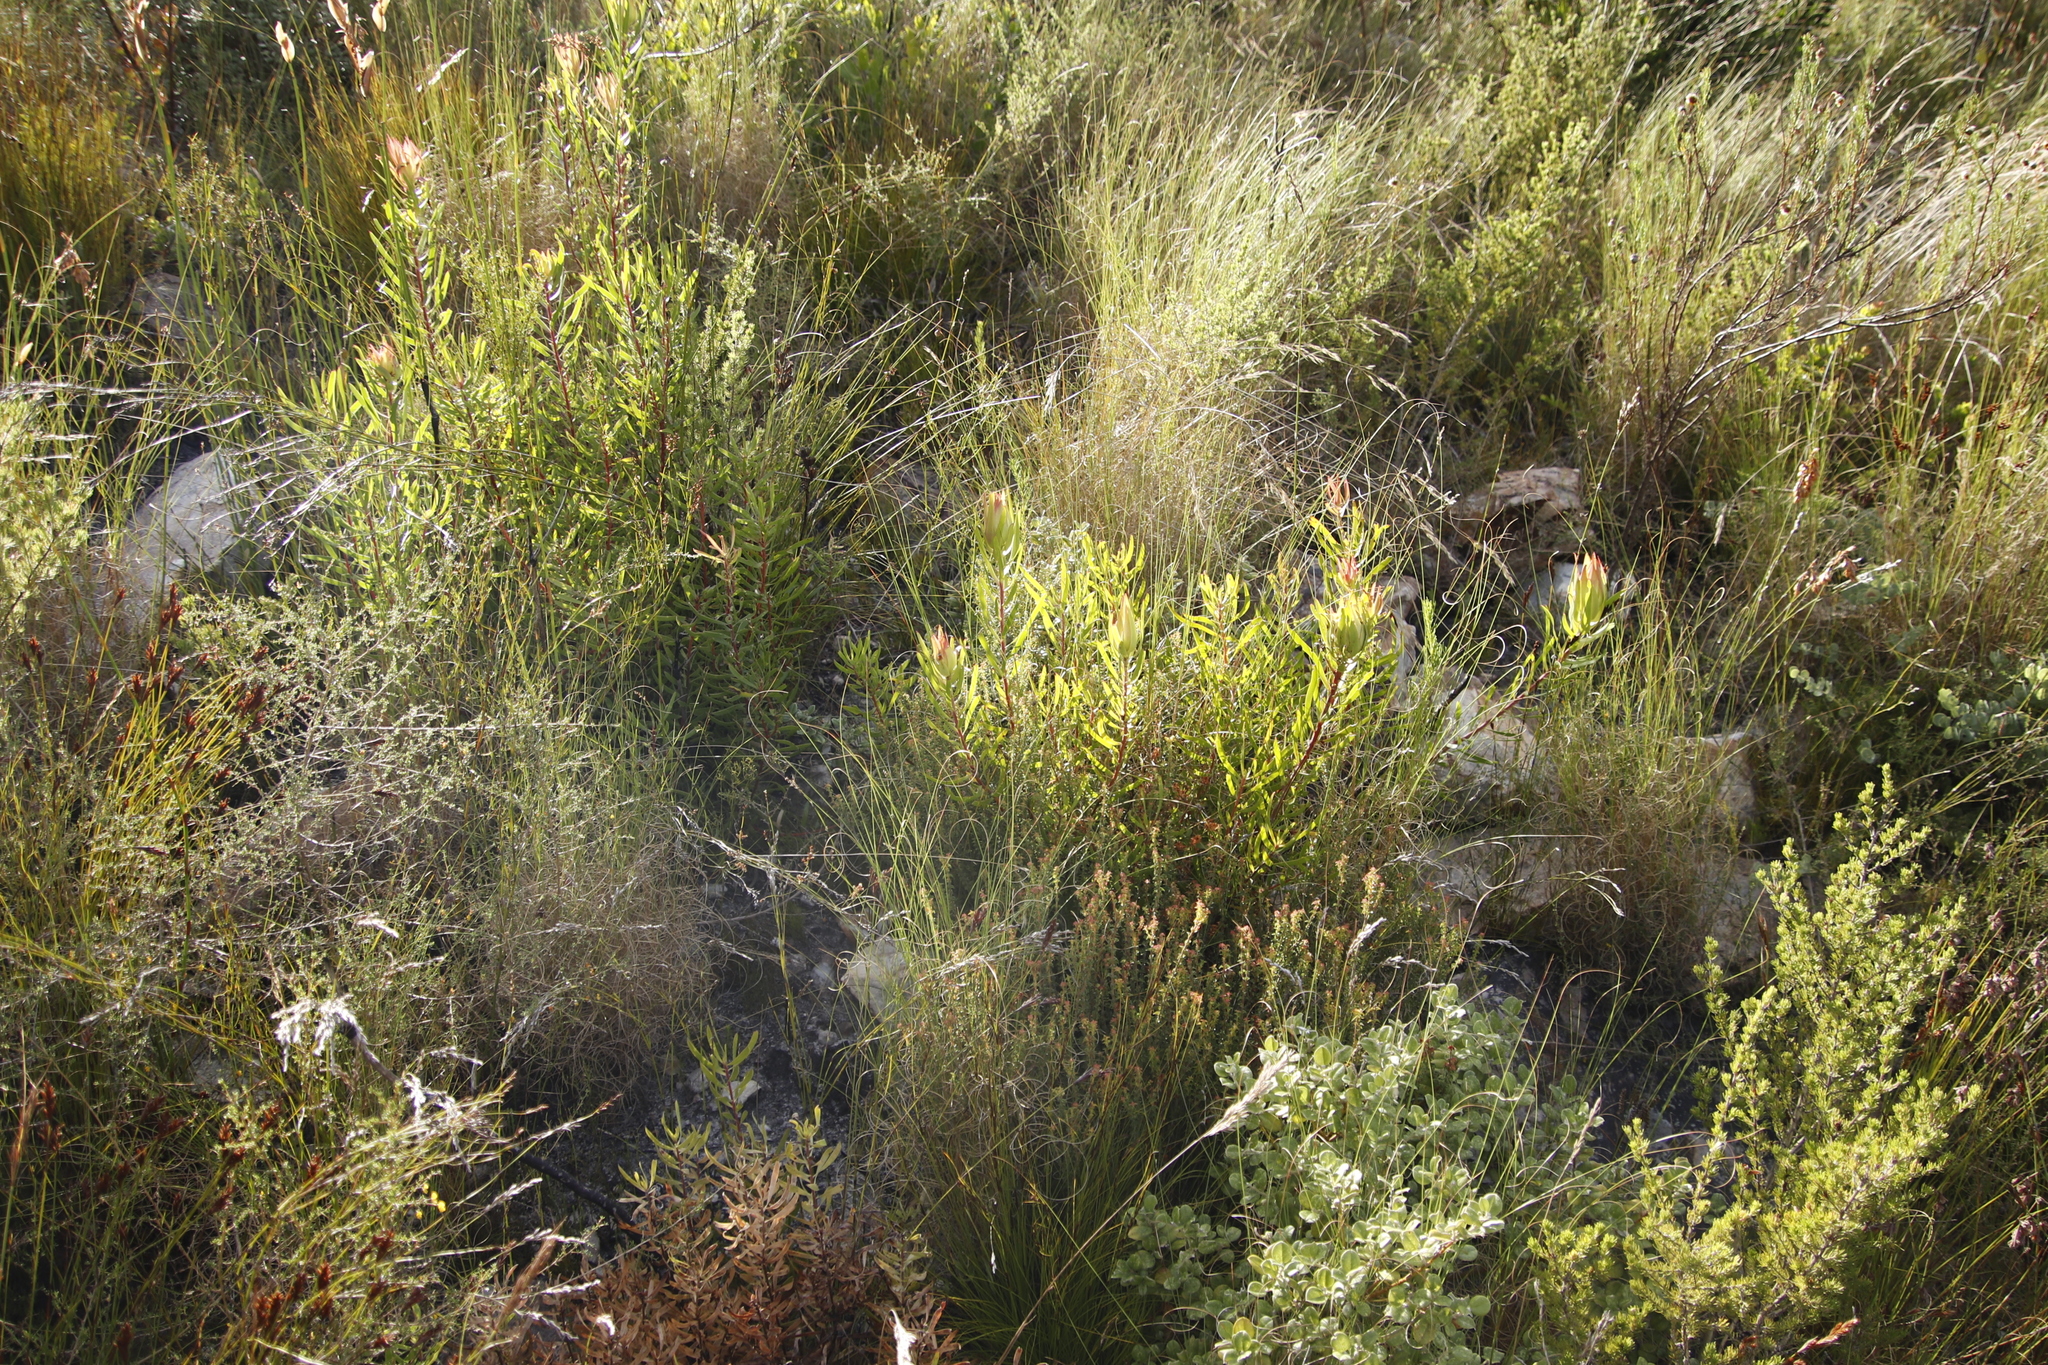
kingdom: Plantae
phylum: Tracheophyta
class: Magnoliopsida
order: Proteales
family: Proteaceae
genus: Leucadendron
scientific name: Leucadendron spissifolium
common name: Spear-leaf conebush
